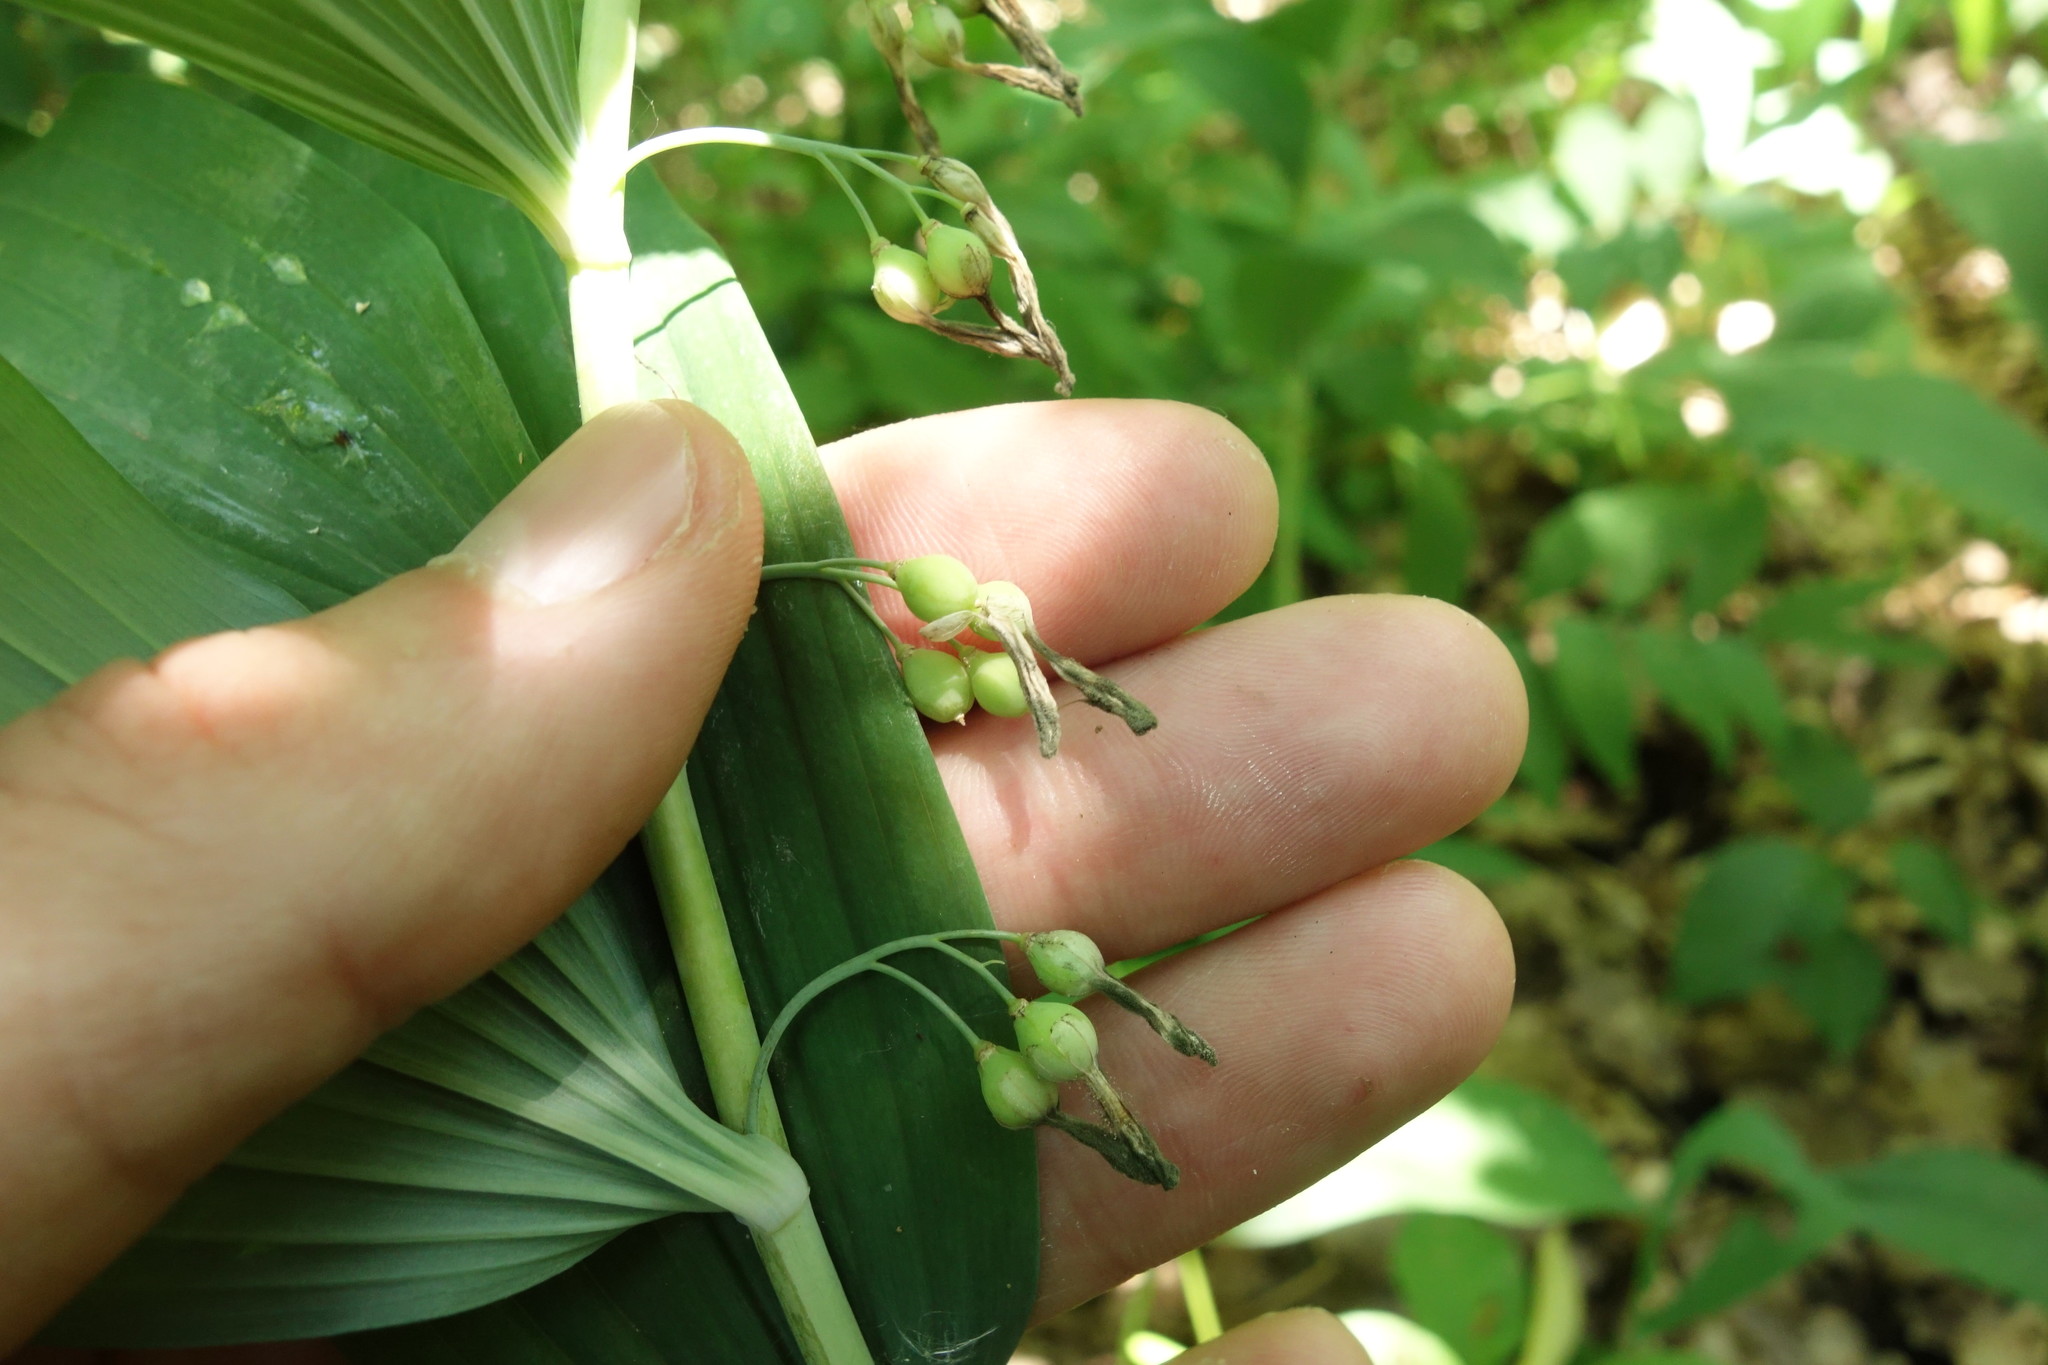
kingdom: Plantae
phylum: Tracheophyta
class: Liliopsida
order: Asparagales
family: Asparagaceae
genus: Polygonatum
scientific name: Polygonatum multiflorum
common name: Solomon's-seal
